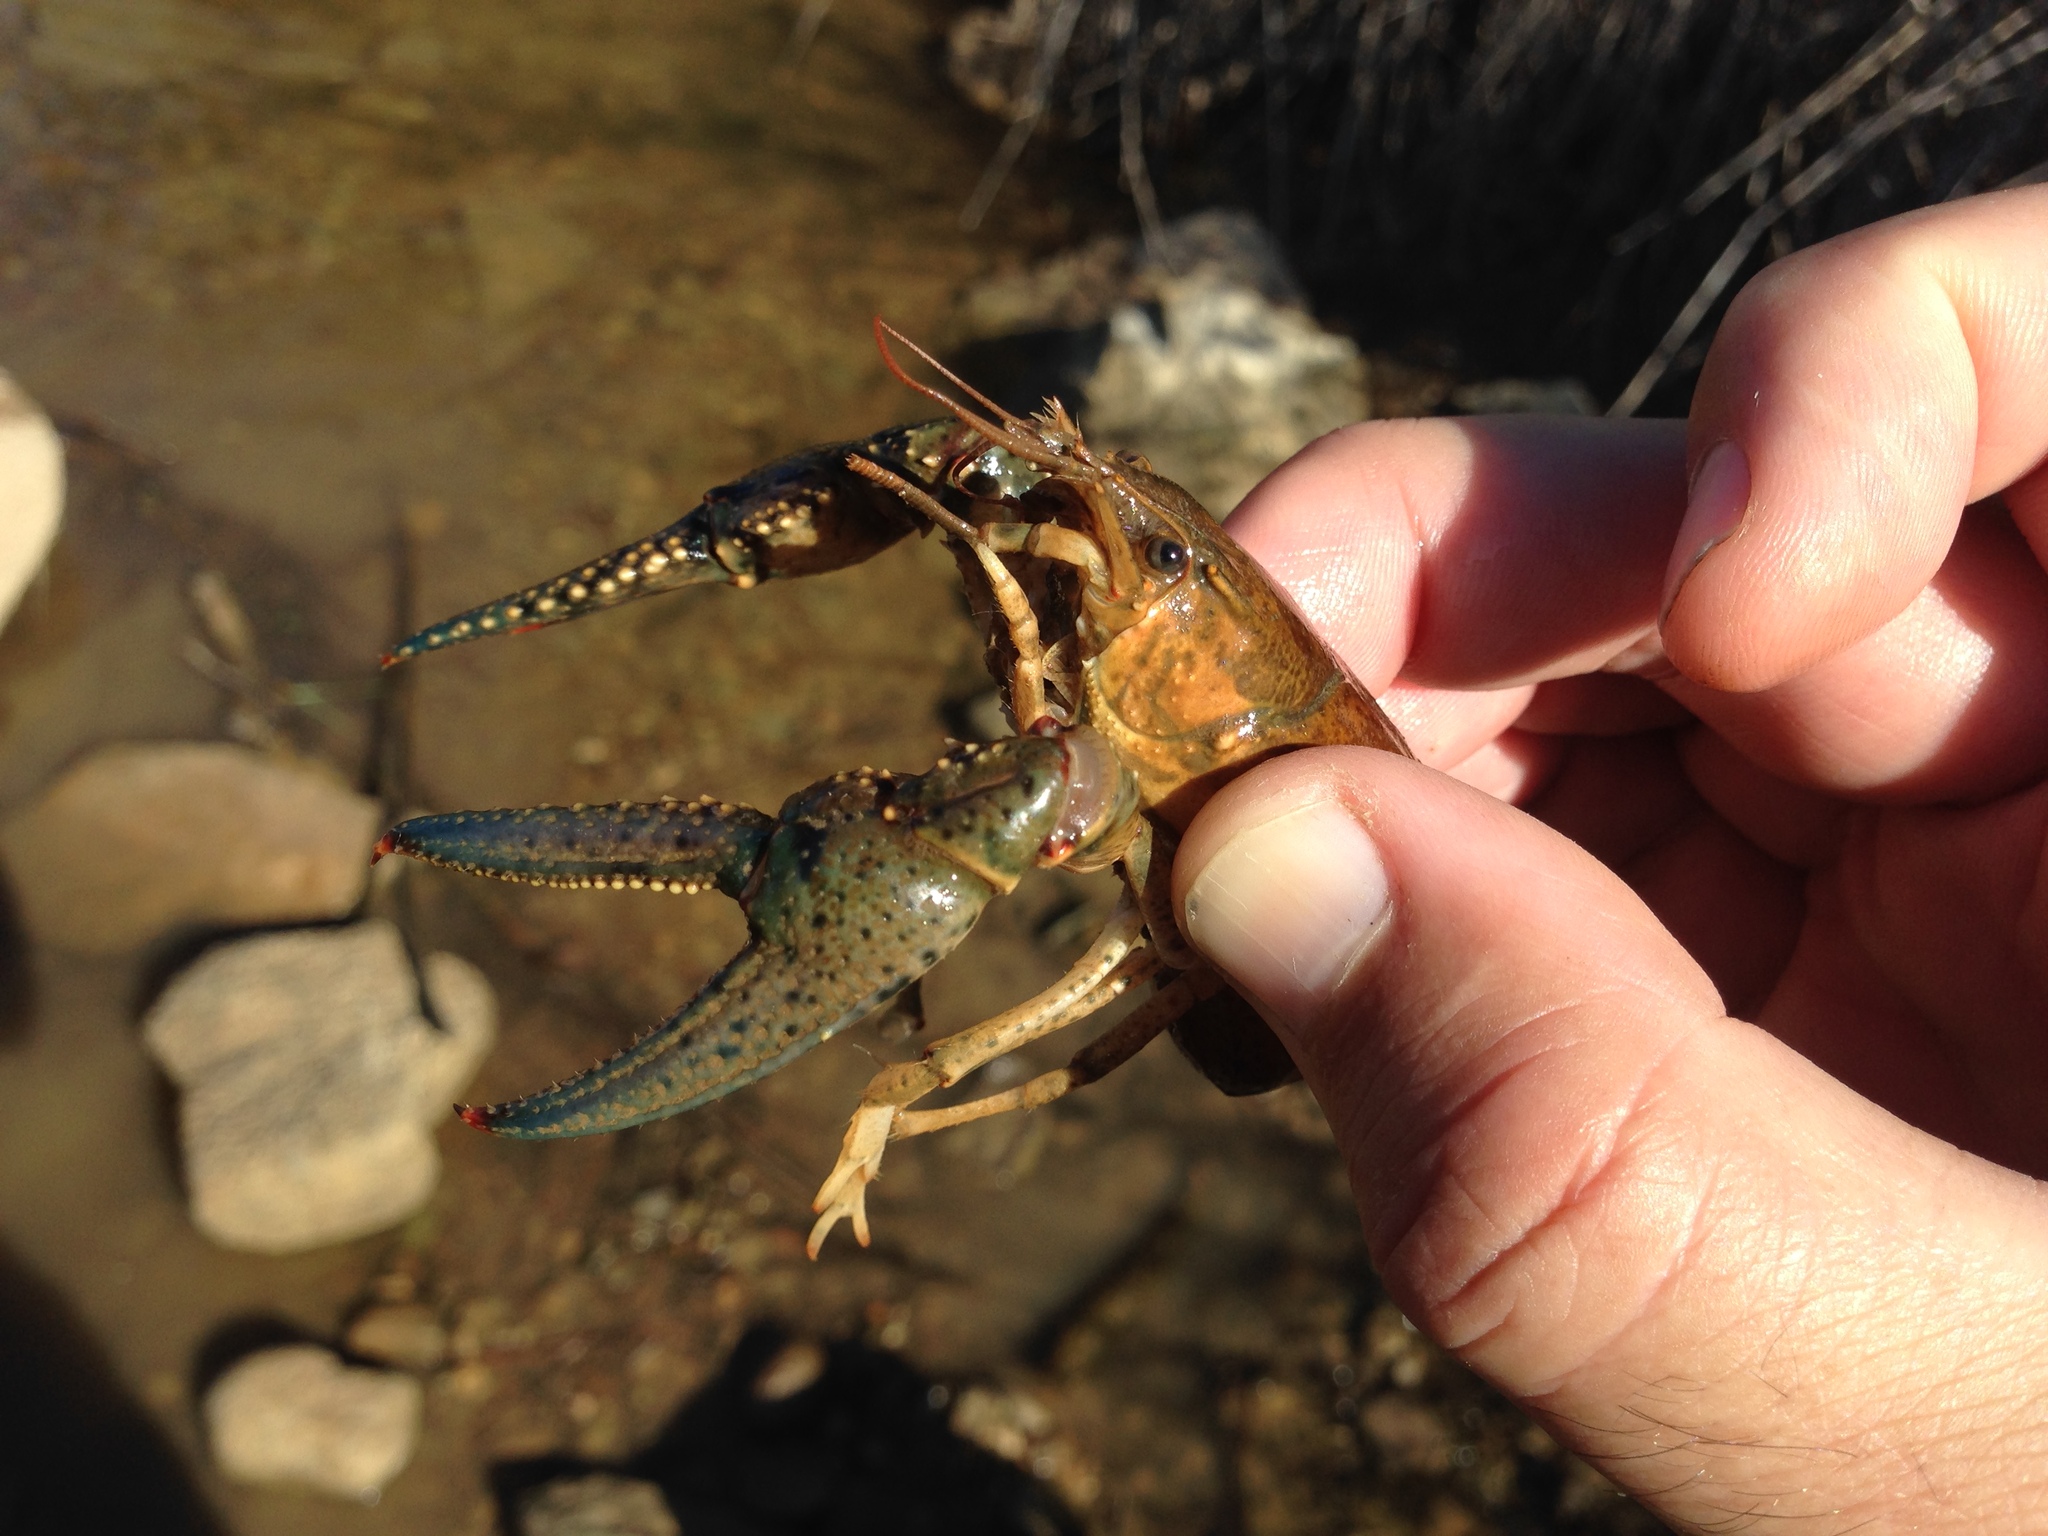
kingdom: Animalia
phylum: Arthropoda
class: Malacostraca
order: Decapoda
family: Cambaridae
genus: Faxonius
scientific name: Faxonius nais
